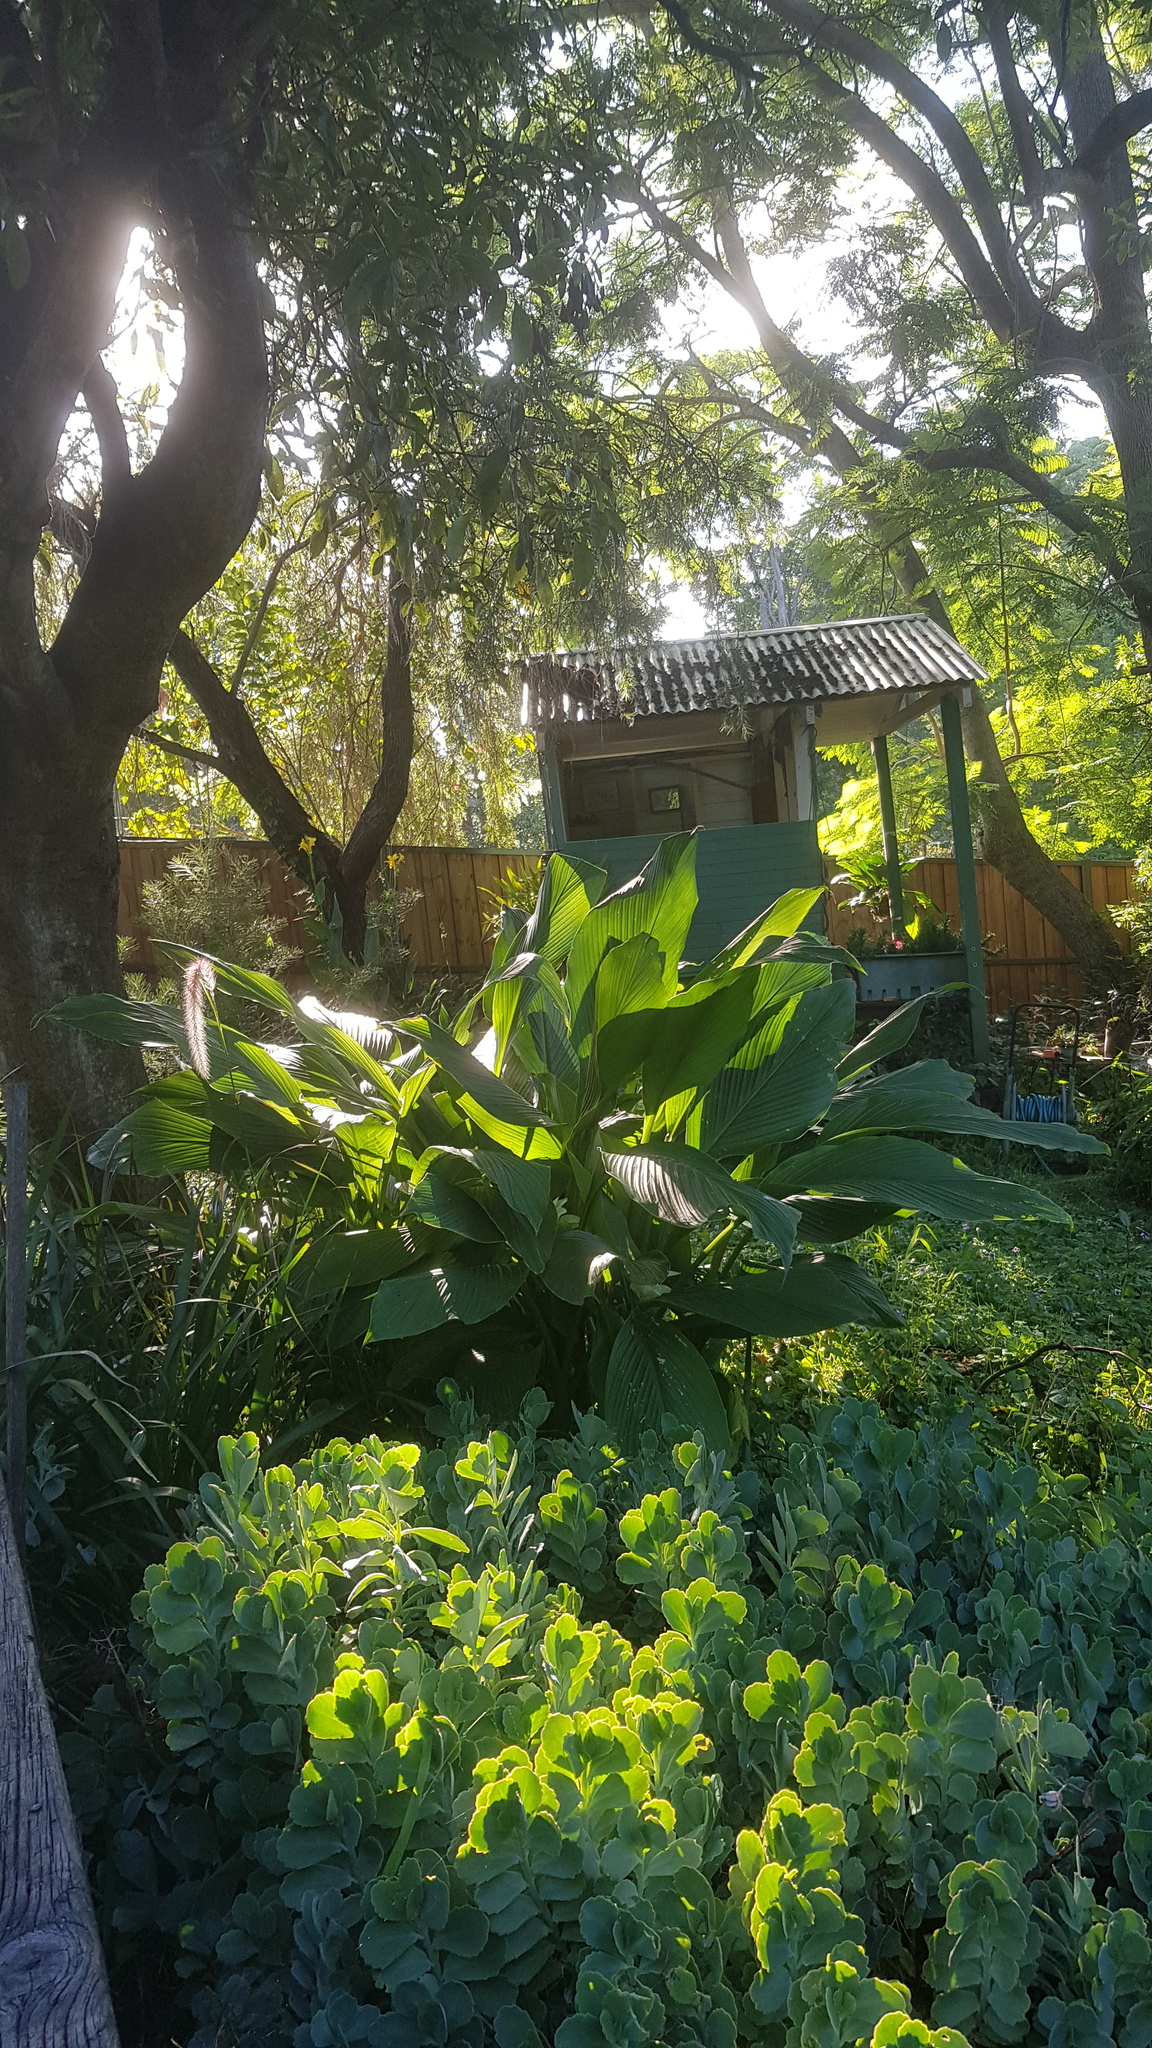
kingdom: Animalia
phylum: Chordata
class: Aves
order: Galliformes
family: Megapodiidae
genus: Alectura
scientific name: Alectura lathami
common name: Australian brushturkey
